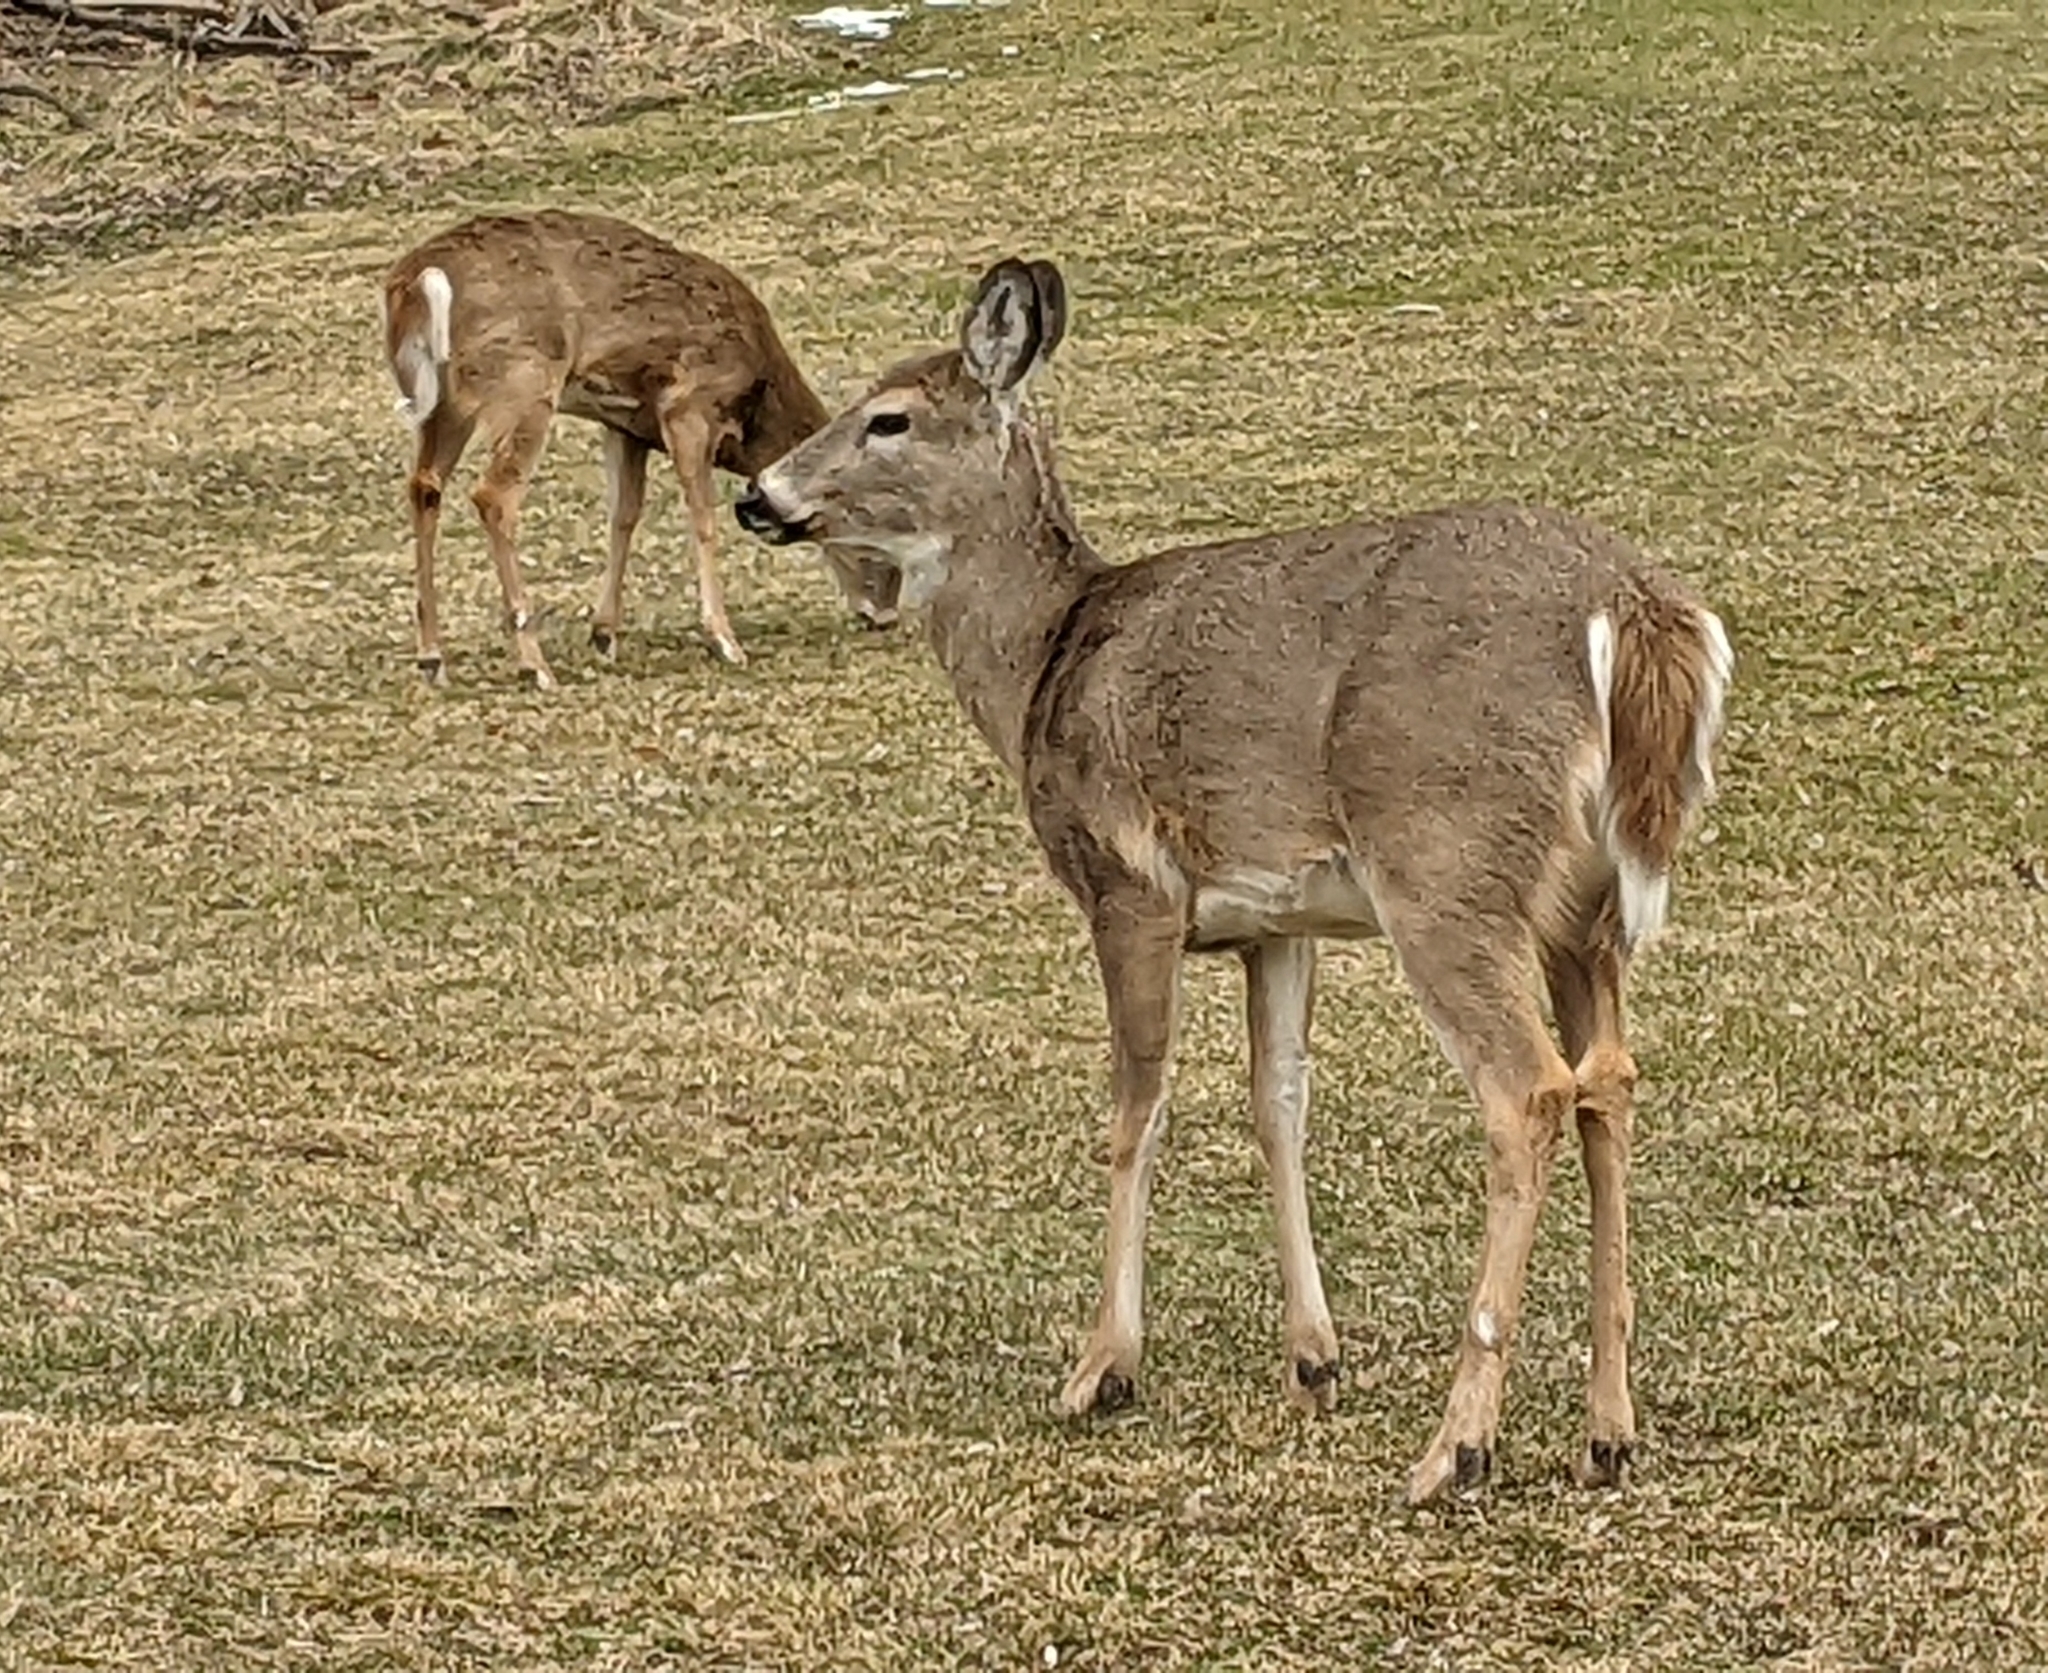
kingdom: Animalia
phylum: Chordata
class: Mammalia
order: Artiodactyla
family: Cervidae
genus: Odocoileus
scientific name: Odocoileus virginianus
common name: White-tailed deer
